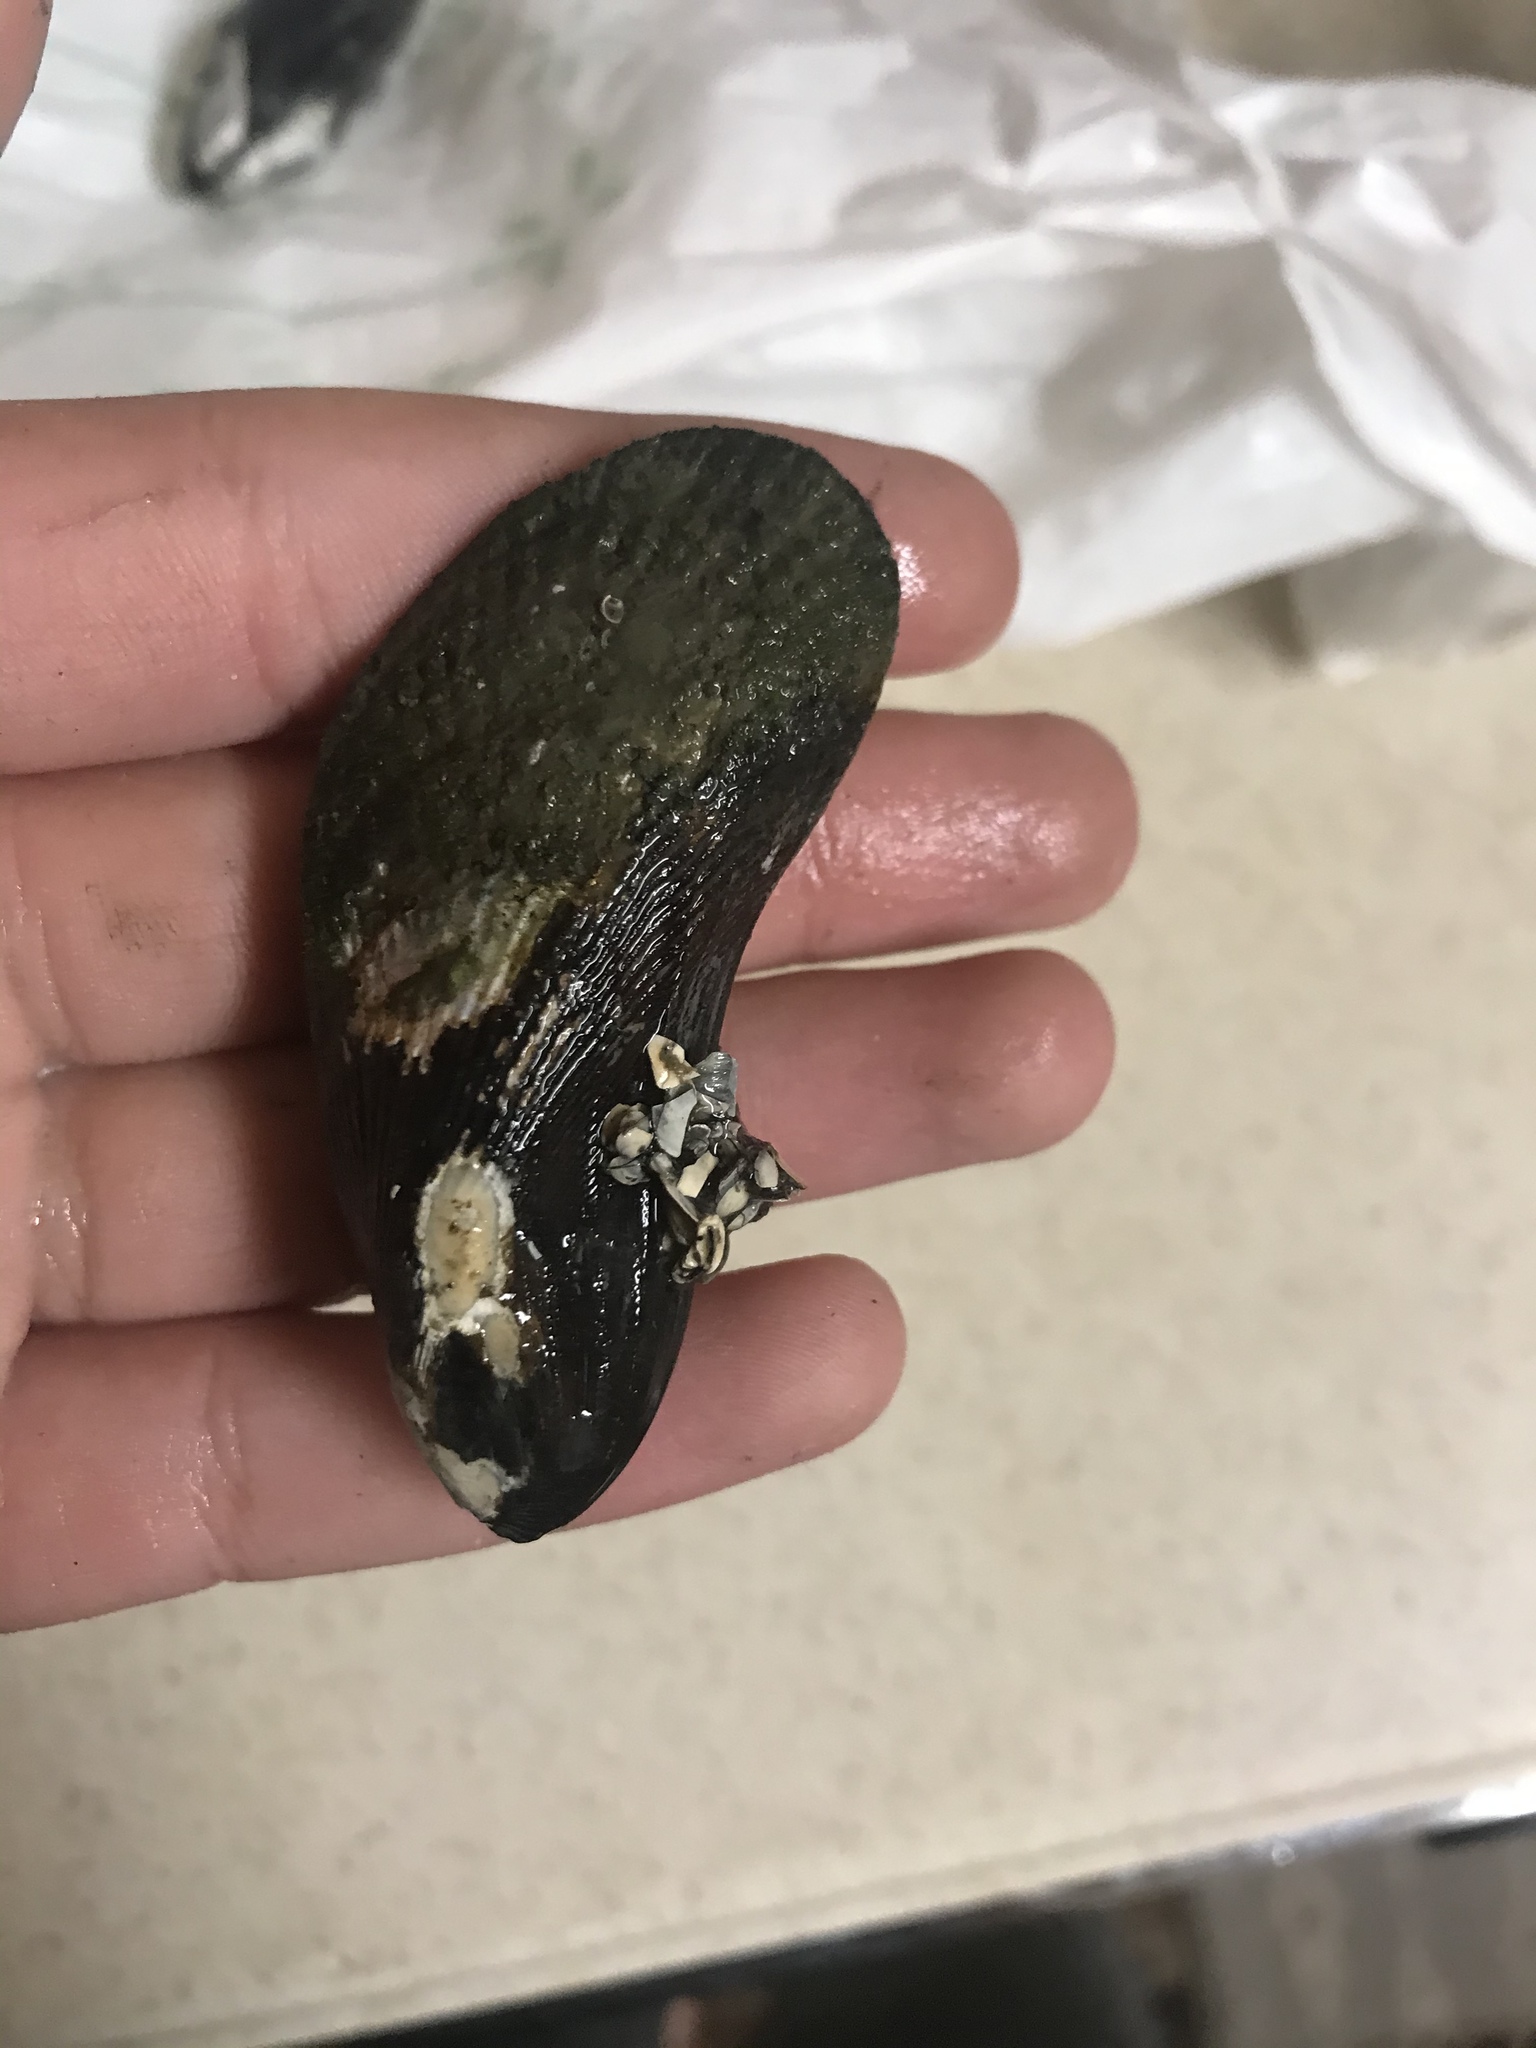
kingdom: Animalia
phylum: Mollusca
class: Bivalvia
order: Mytilida
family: Mytilidae
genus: Geukensia
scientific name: Geukensia demissa
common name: Ribbed mussel
